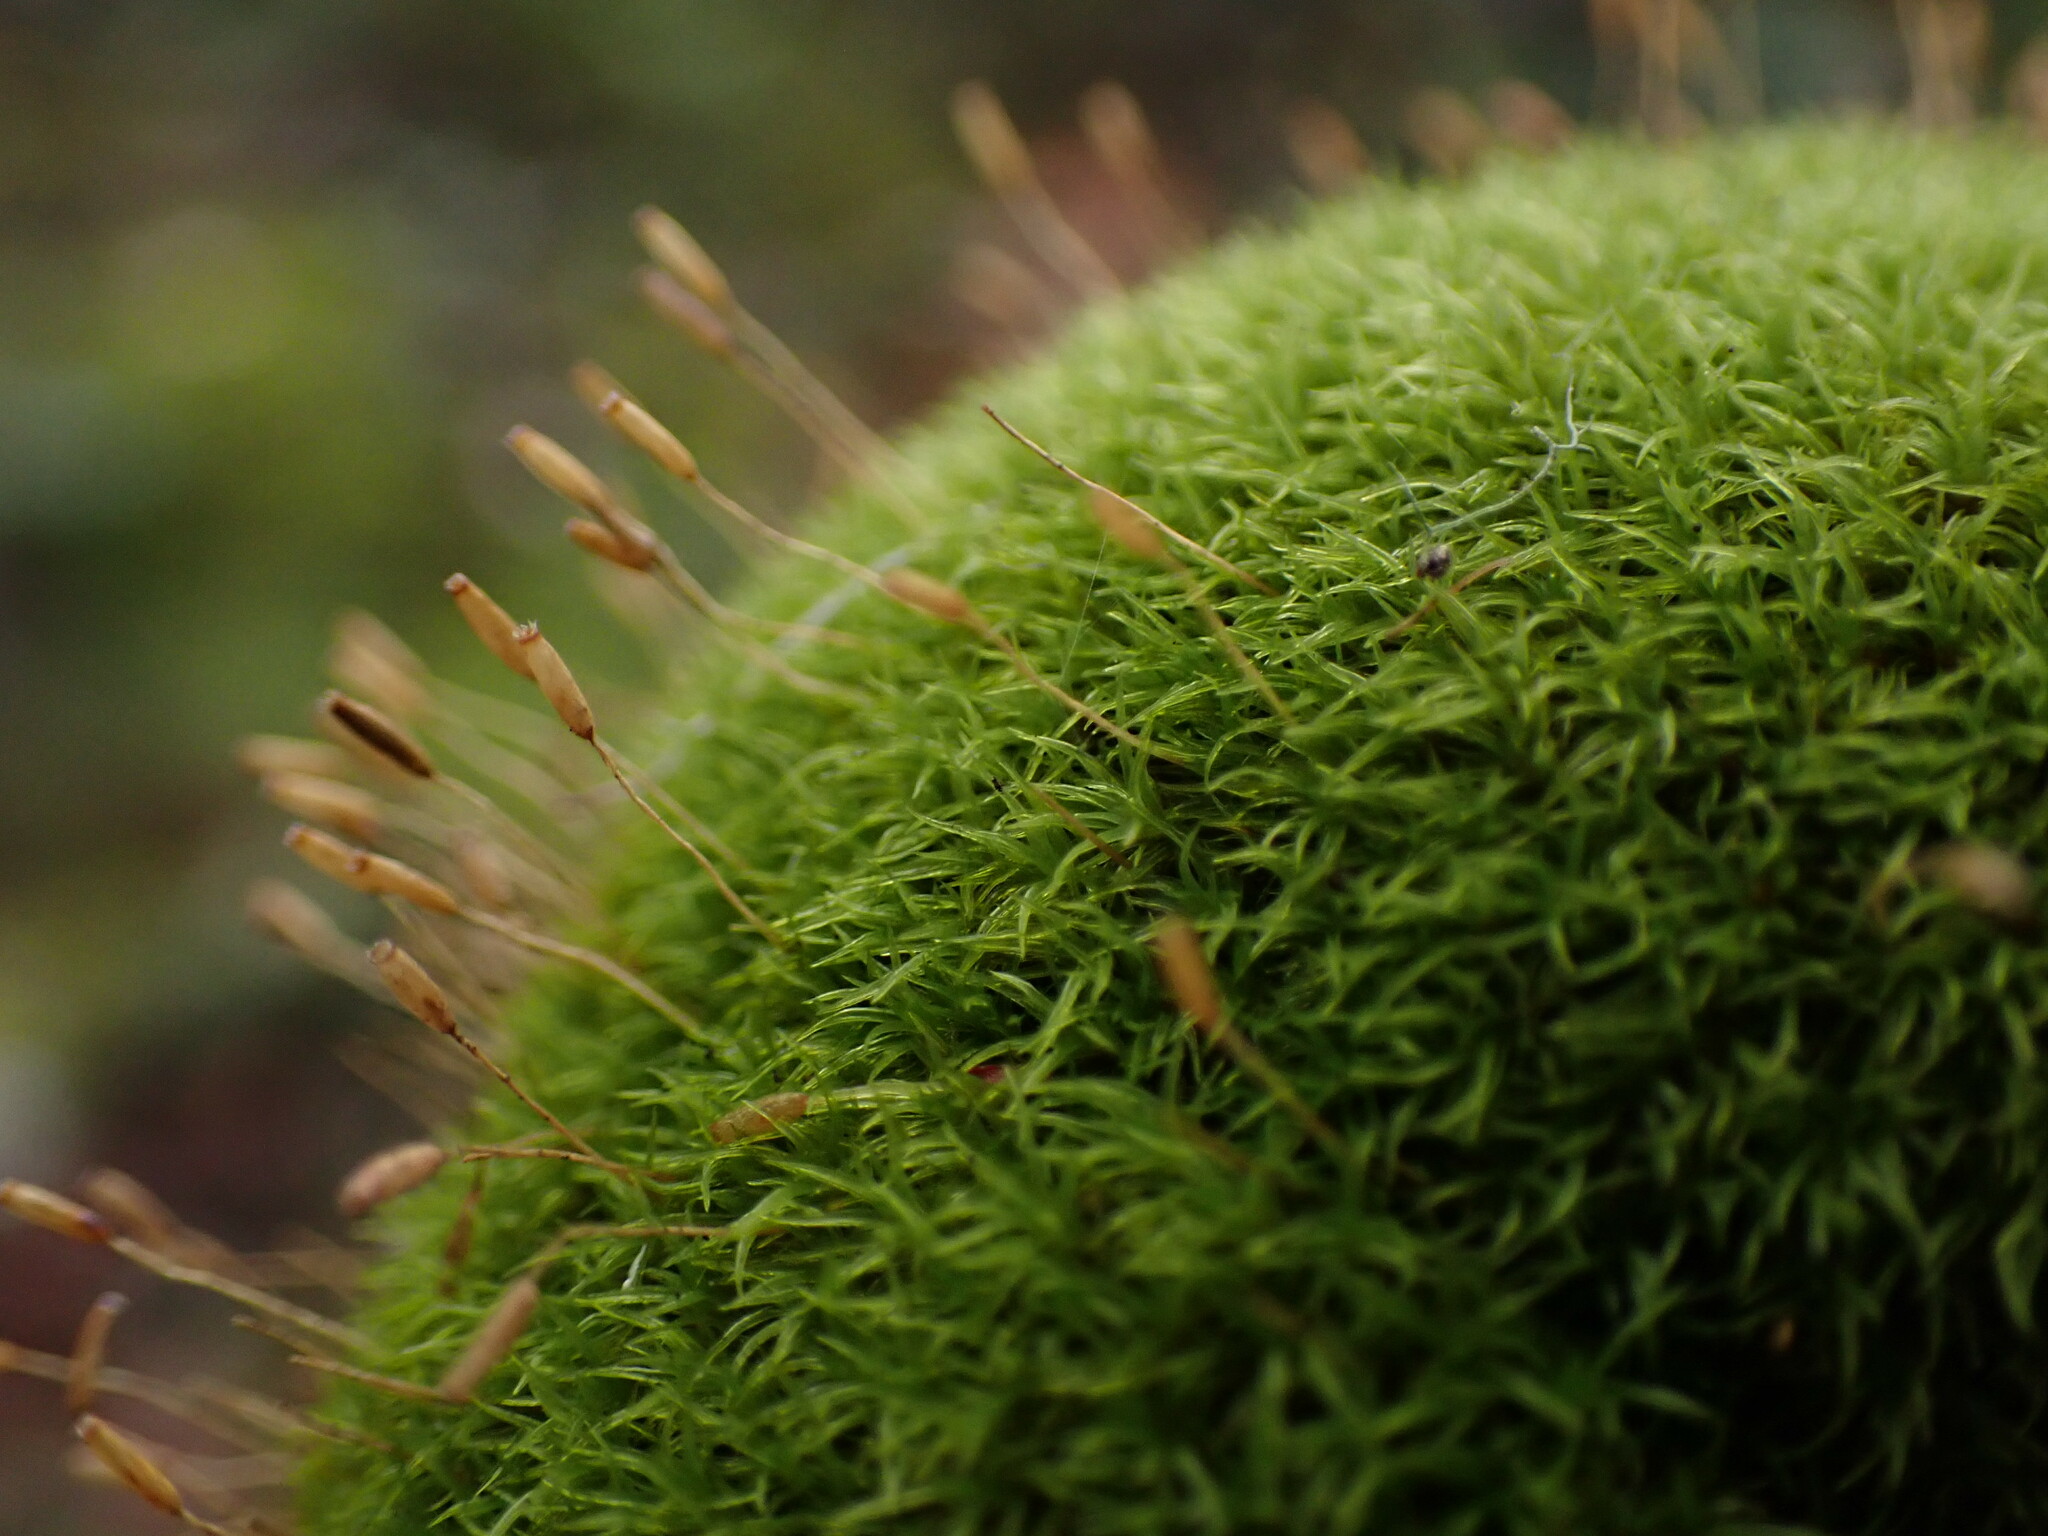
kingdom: Plantae
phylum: Bryophyta
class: Bryopsida
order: Dicranales
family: Rhabdoweisiaceae
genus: Dicranoweisia
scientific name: Dicranoweisia cirrata
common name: Common pincushion
